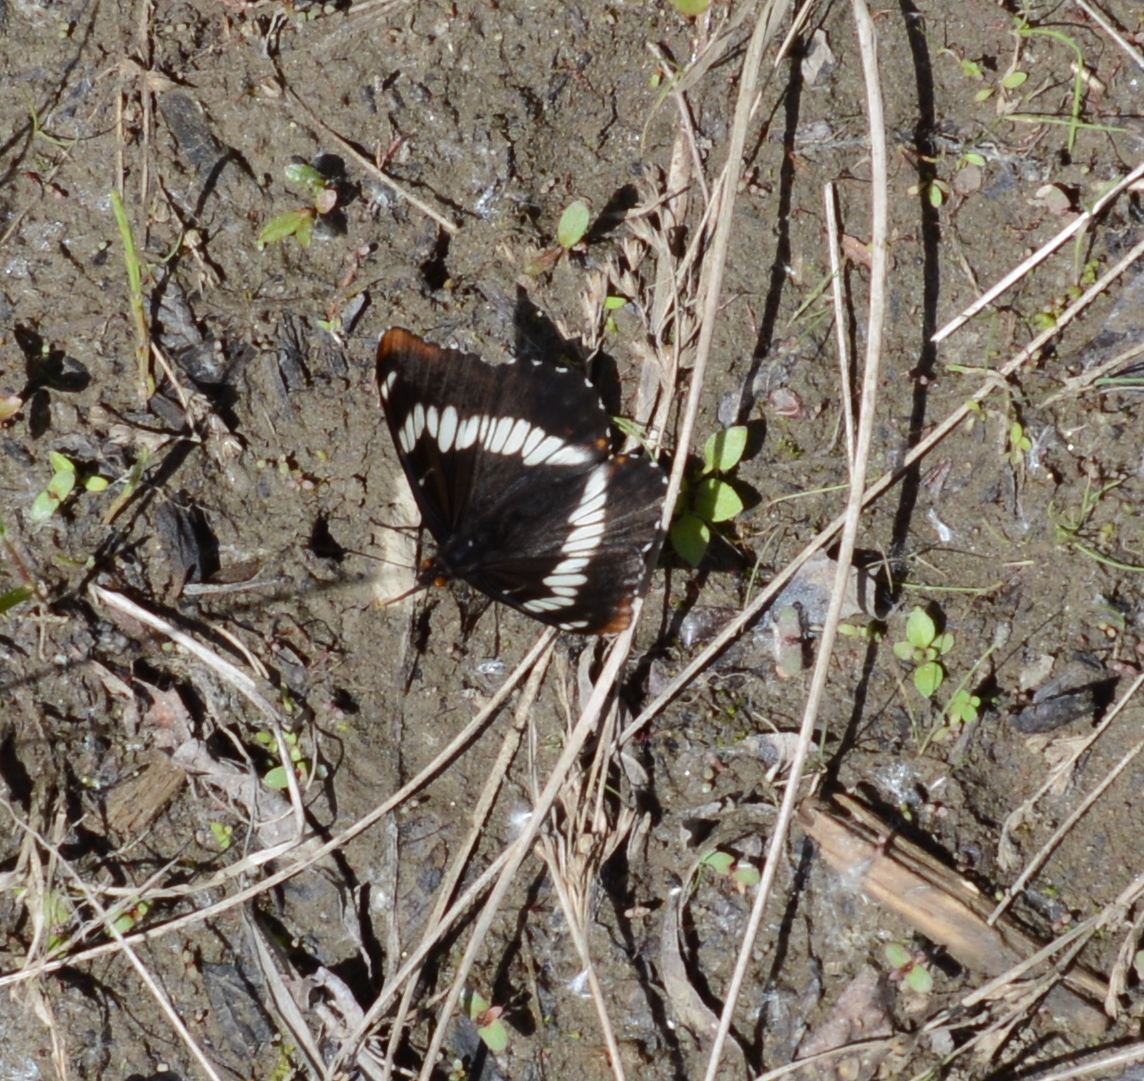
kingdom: Animalia
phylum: Arthropoda
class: Insecta
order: Lepidoptera
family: Nymphalidae
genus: Limenitis
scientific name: Limenitis lorquini
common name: Lorquin's admiral
